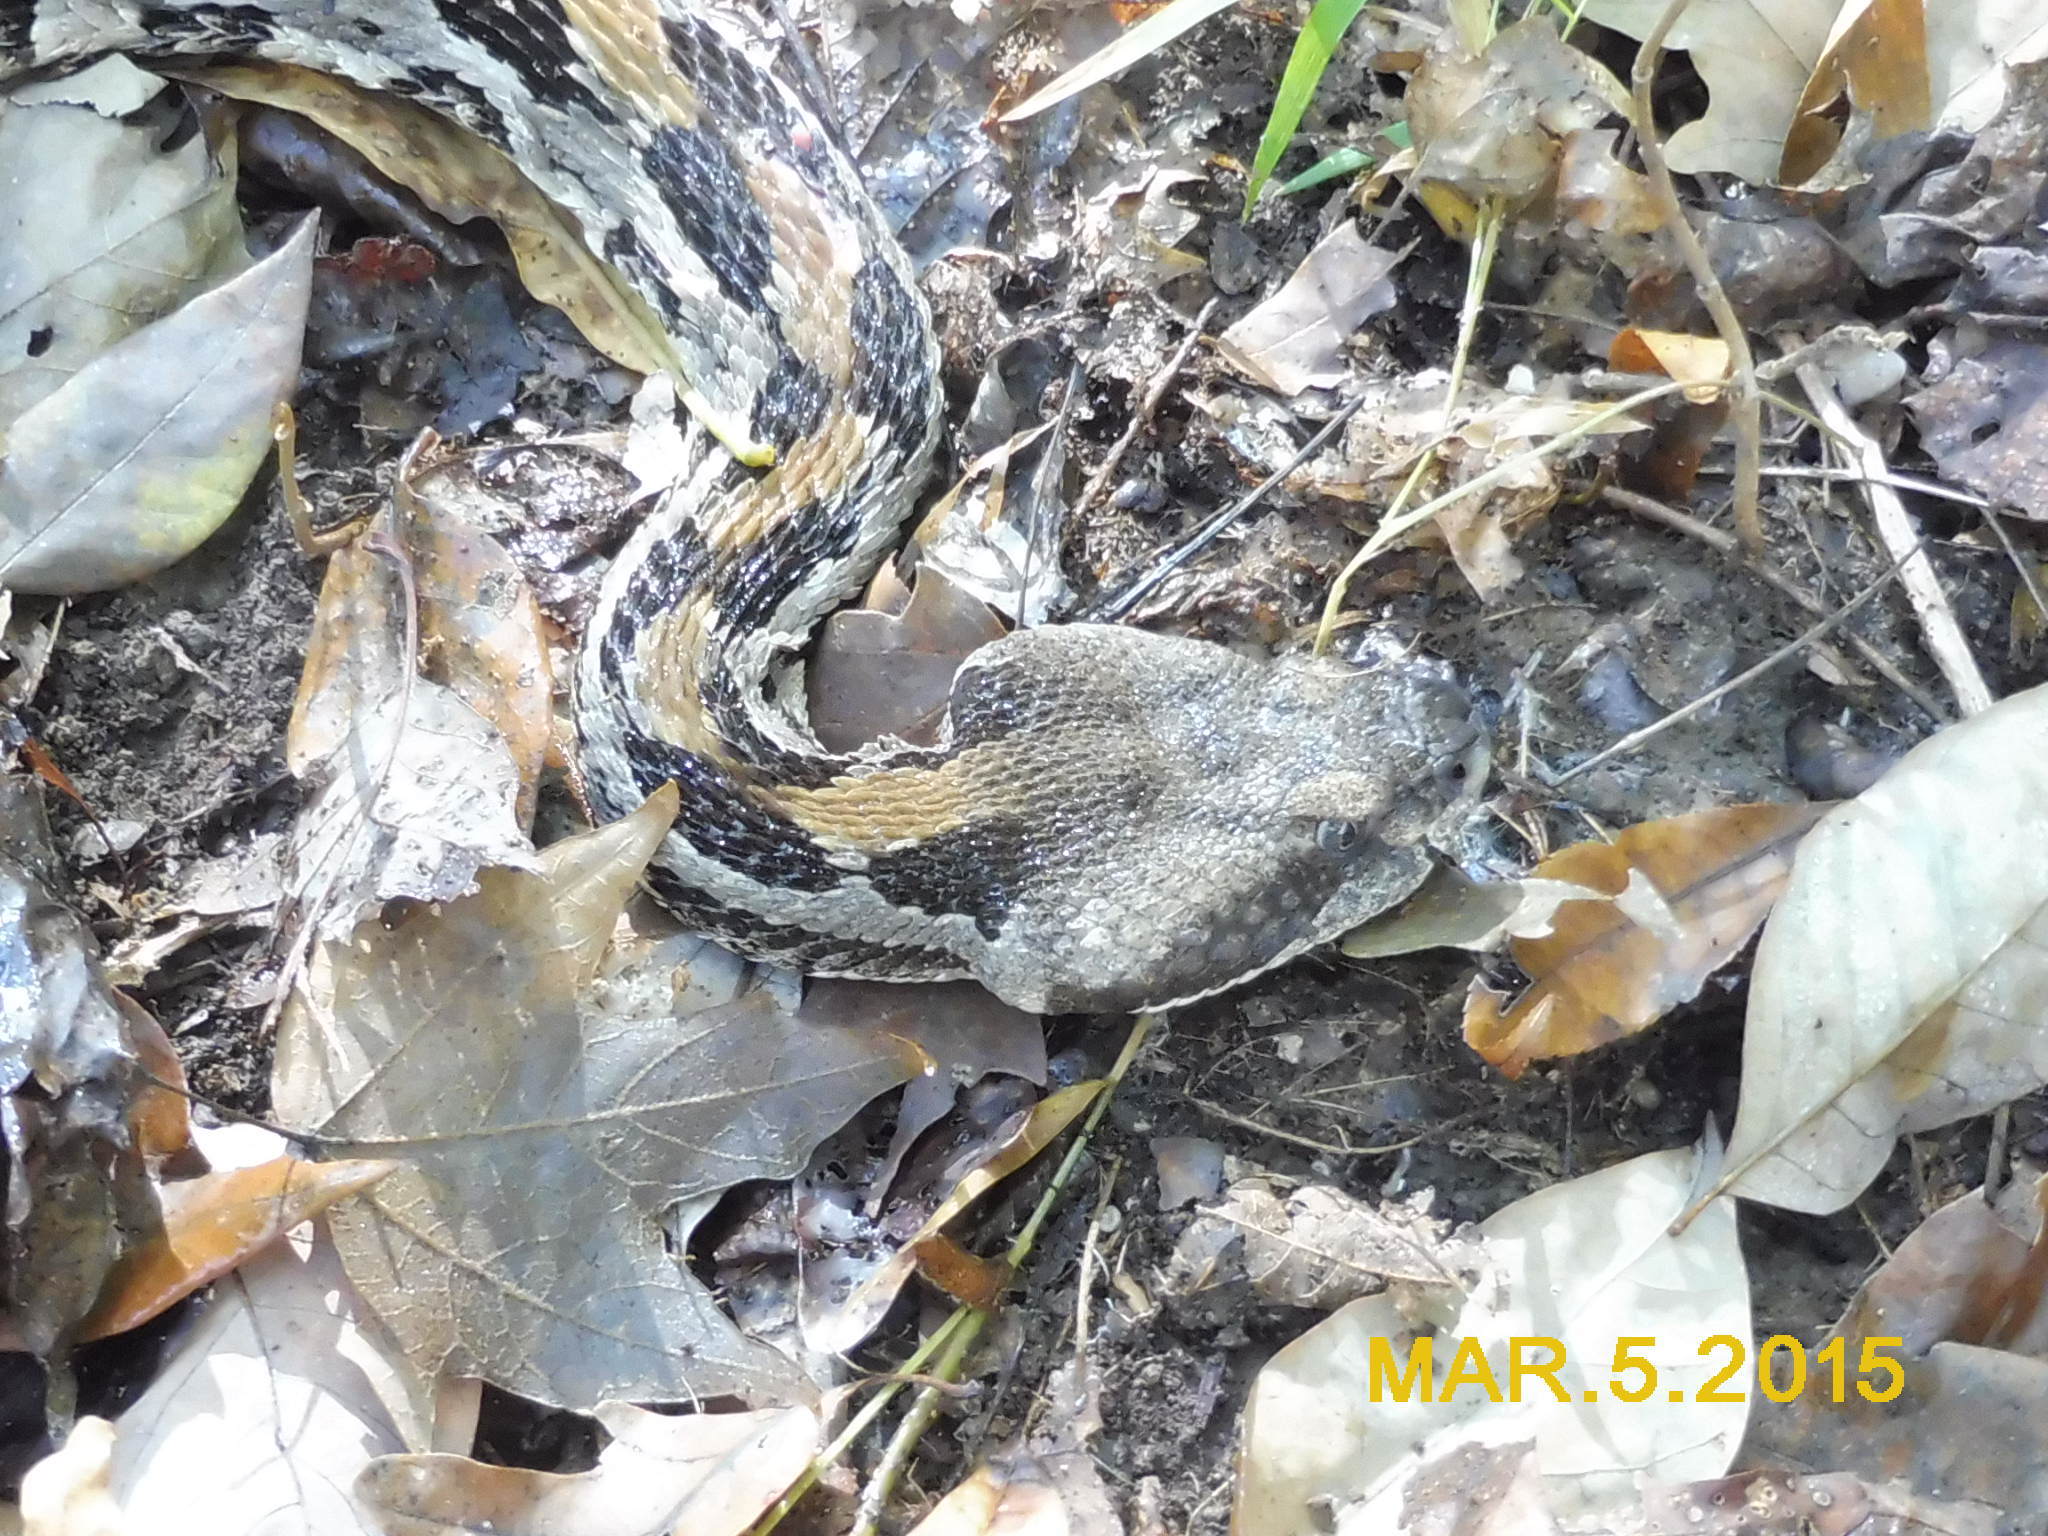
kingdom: Animalia
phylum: Chordata
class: Squamata
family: Viperidae
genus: Crotalus
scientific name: Crotalus horridus
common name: Timber rattlesnake
